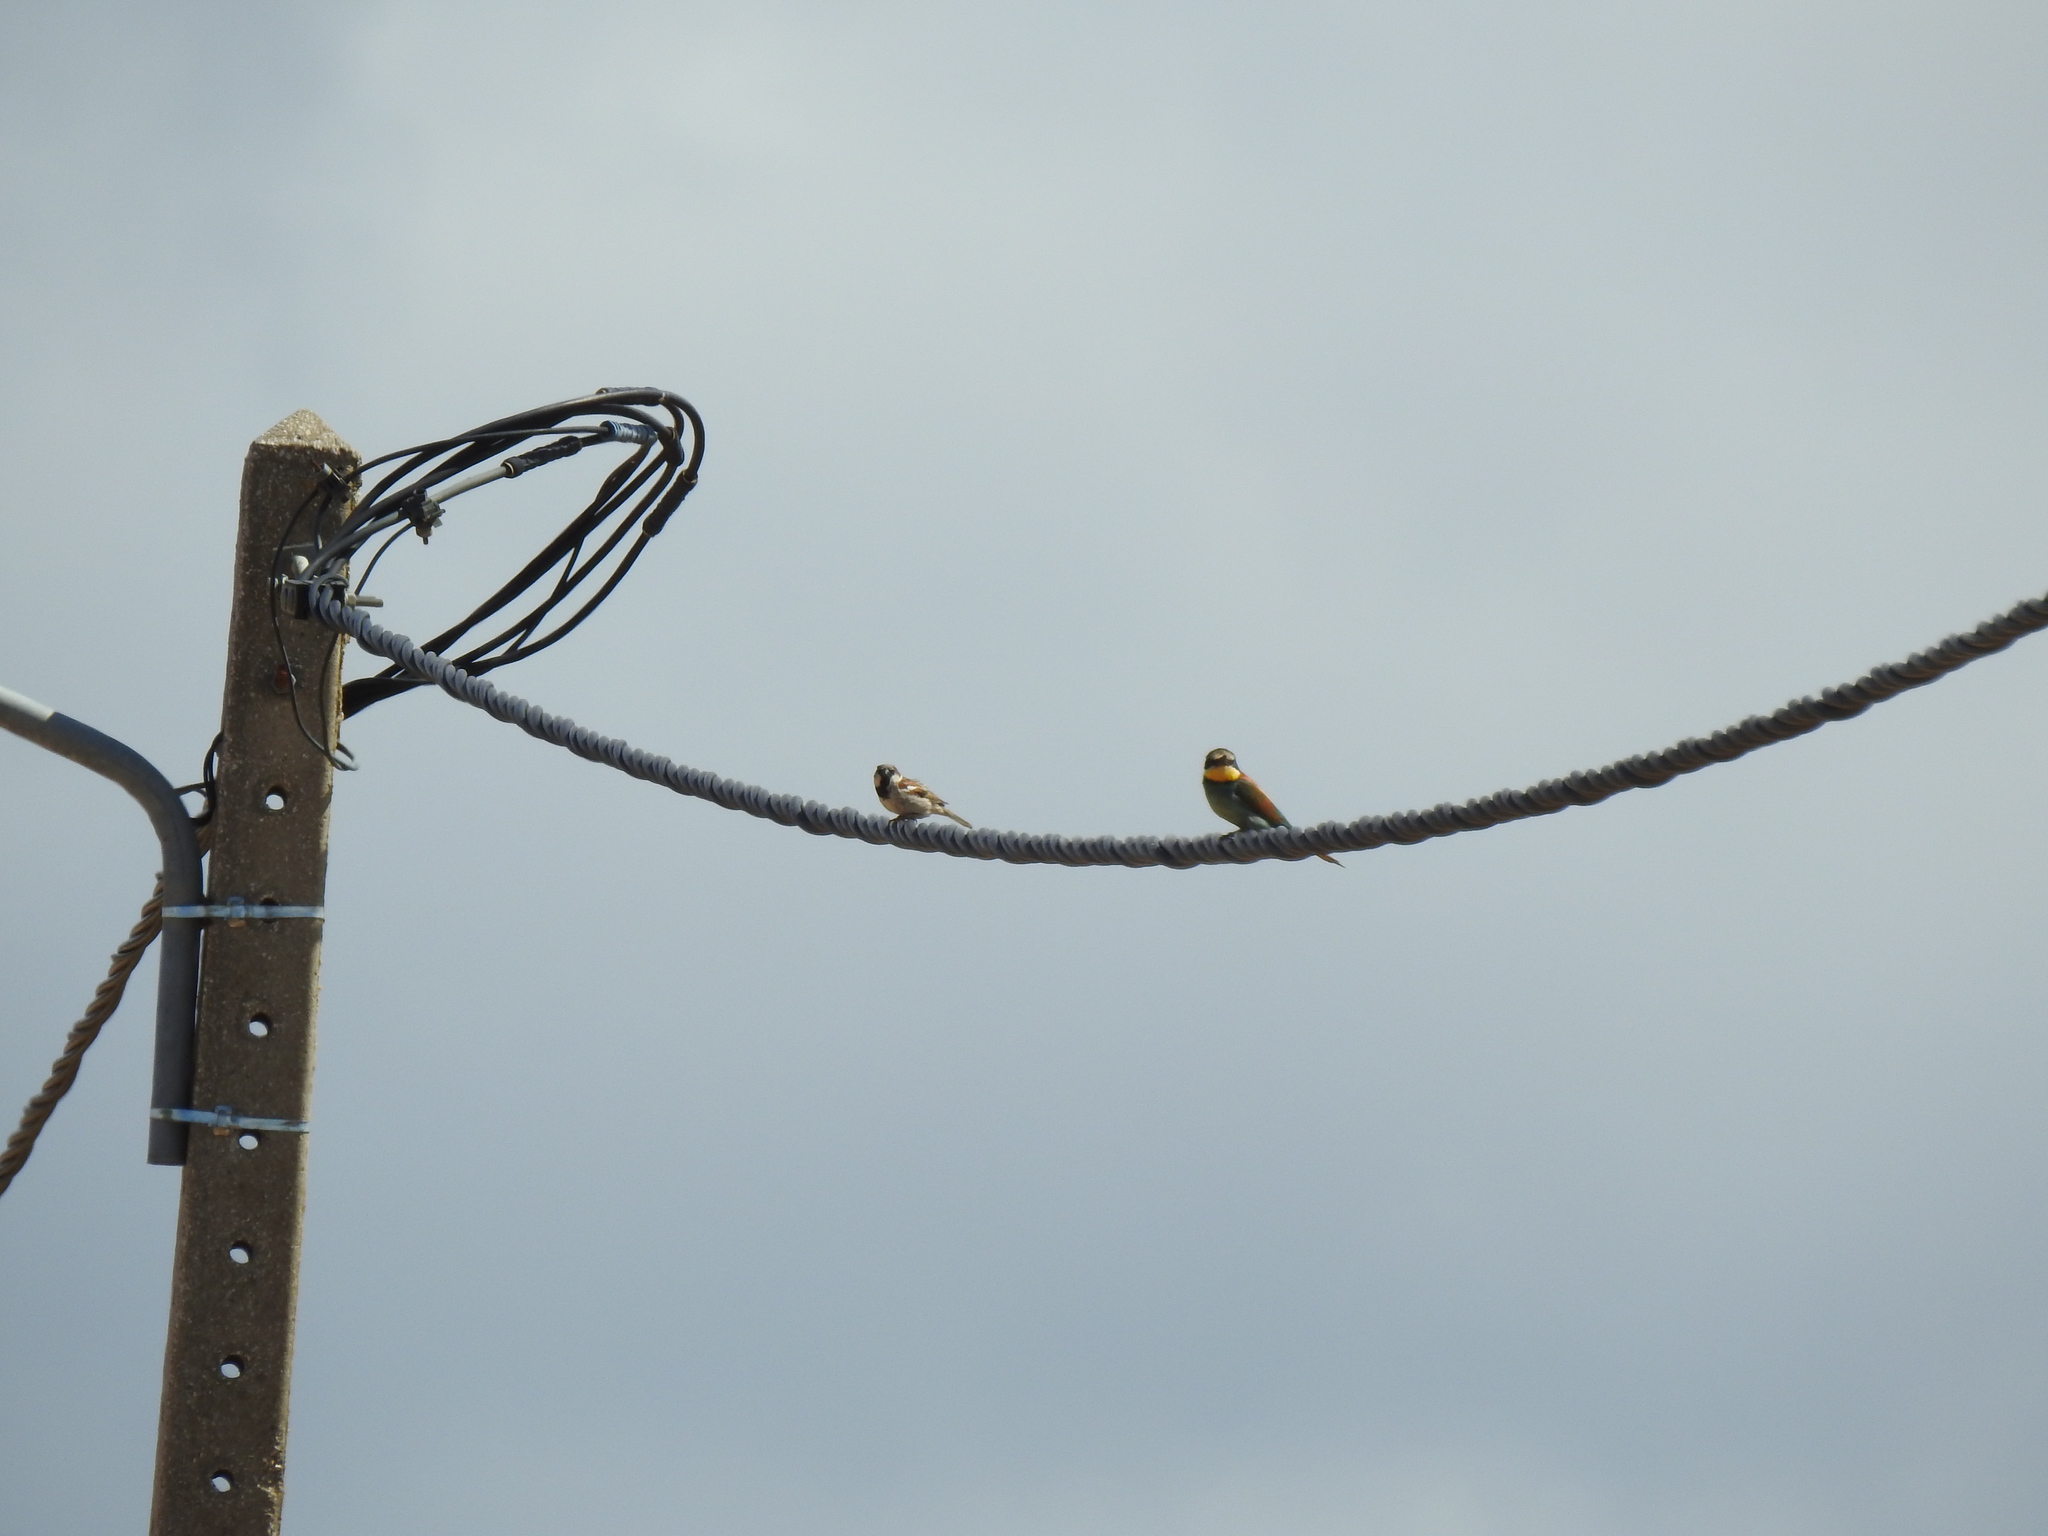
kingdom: Animalia
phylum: Chordata
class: Aves
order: Passeriformes
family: Passeridae
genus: Passer
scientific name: Passer domesticus
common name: House sparrow
